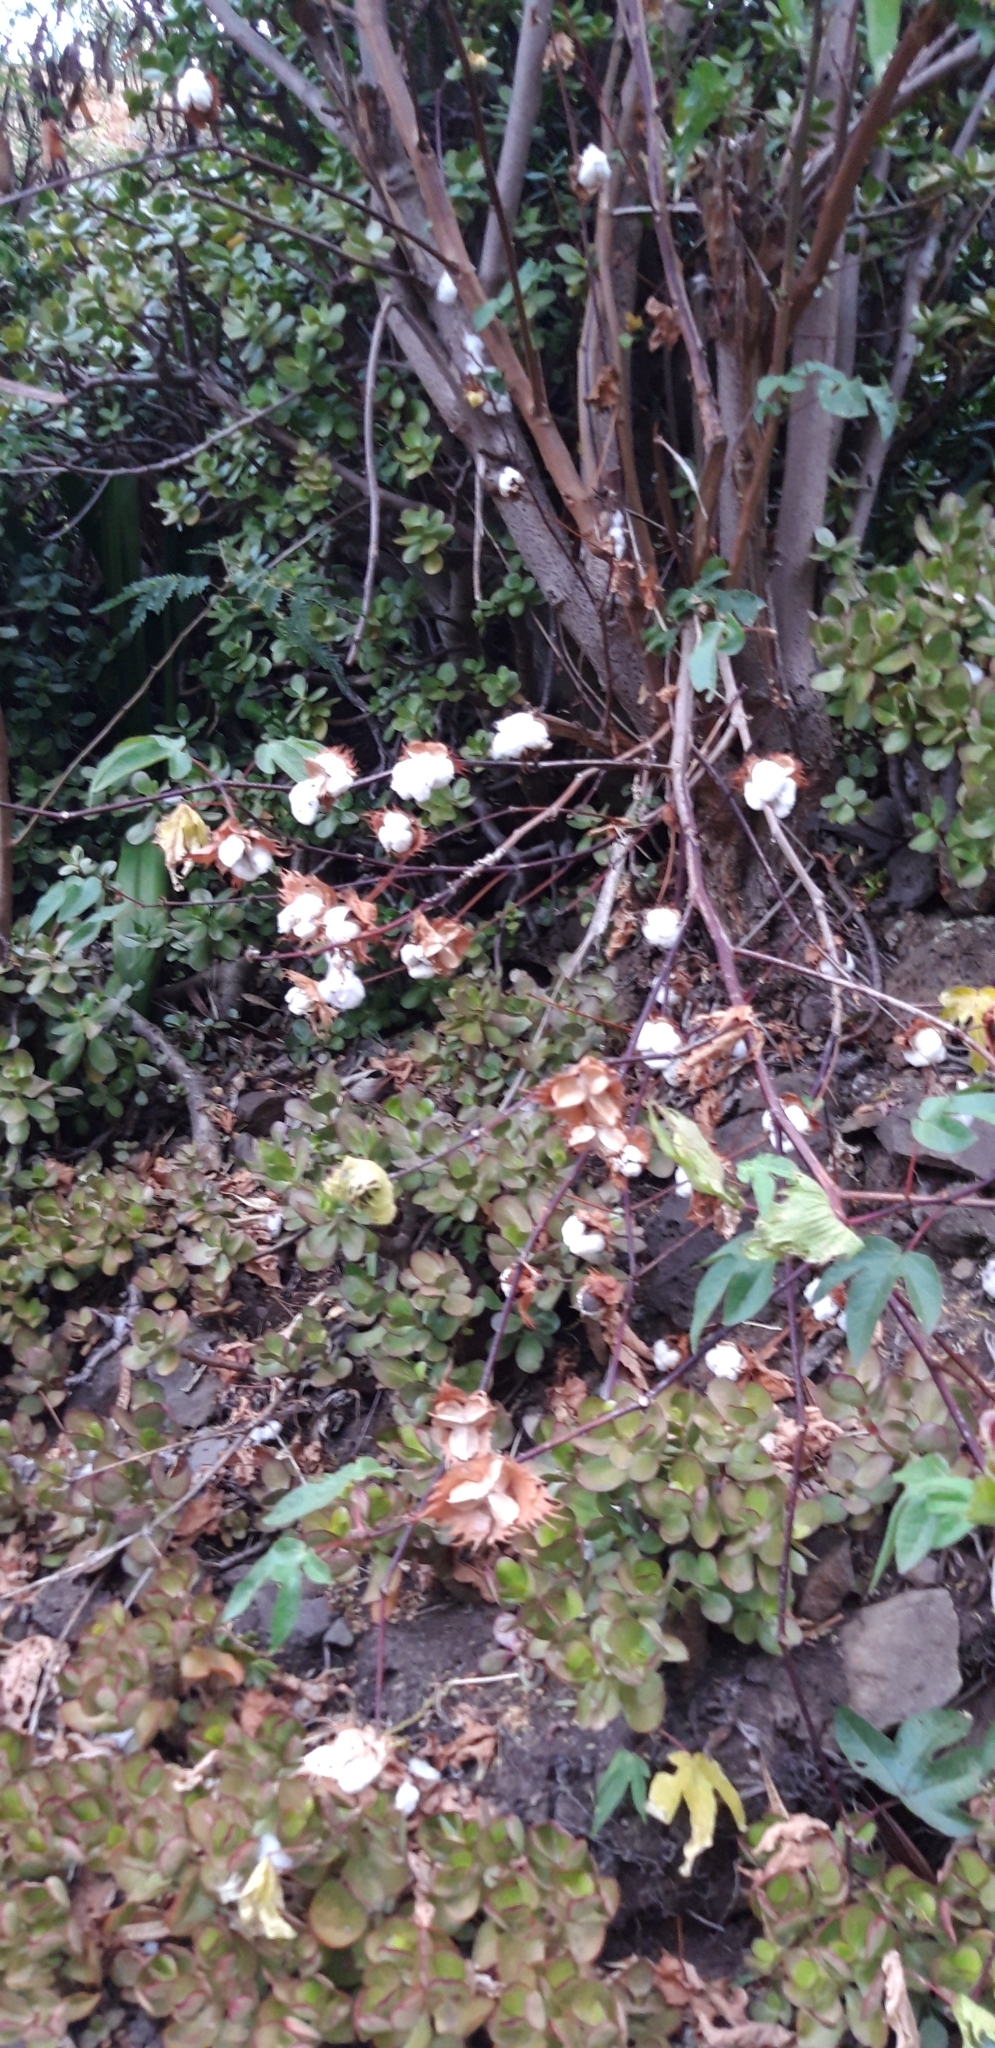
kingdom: Plantae
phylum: Tracheophyta
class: Magnoliopsida
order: Malvales
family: Malvaceae
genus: Gossypium
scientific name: Gossypium herbaceum
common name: Levant cotton
